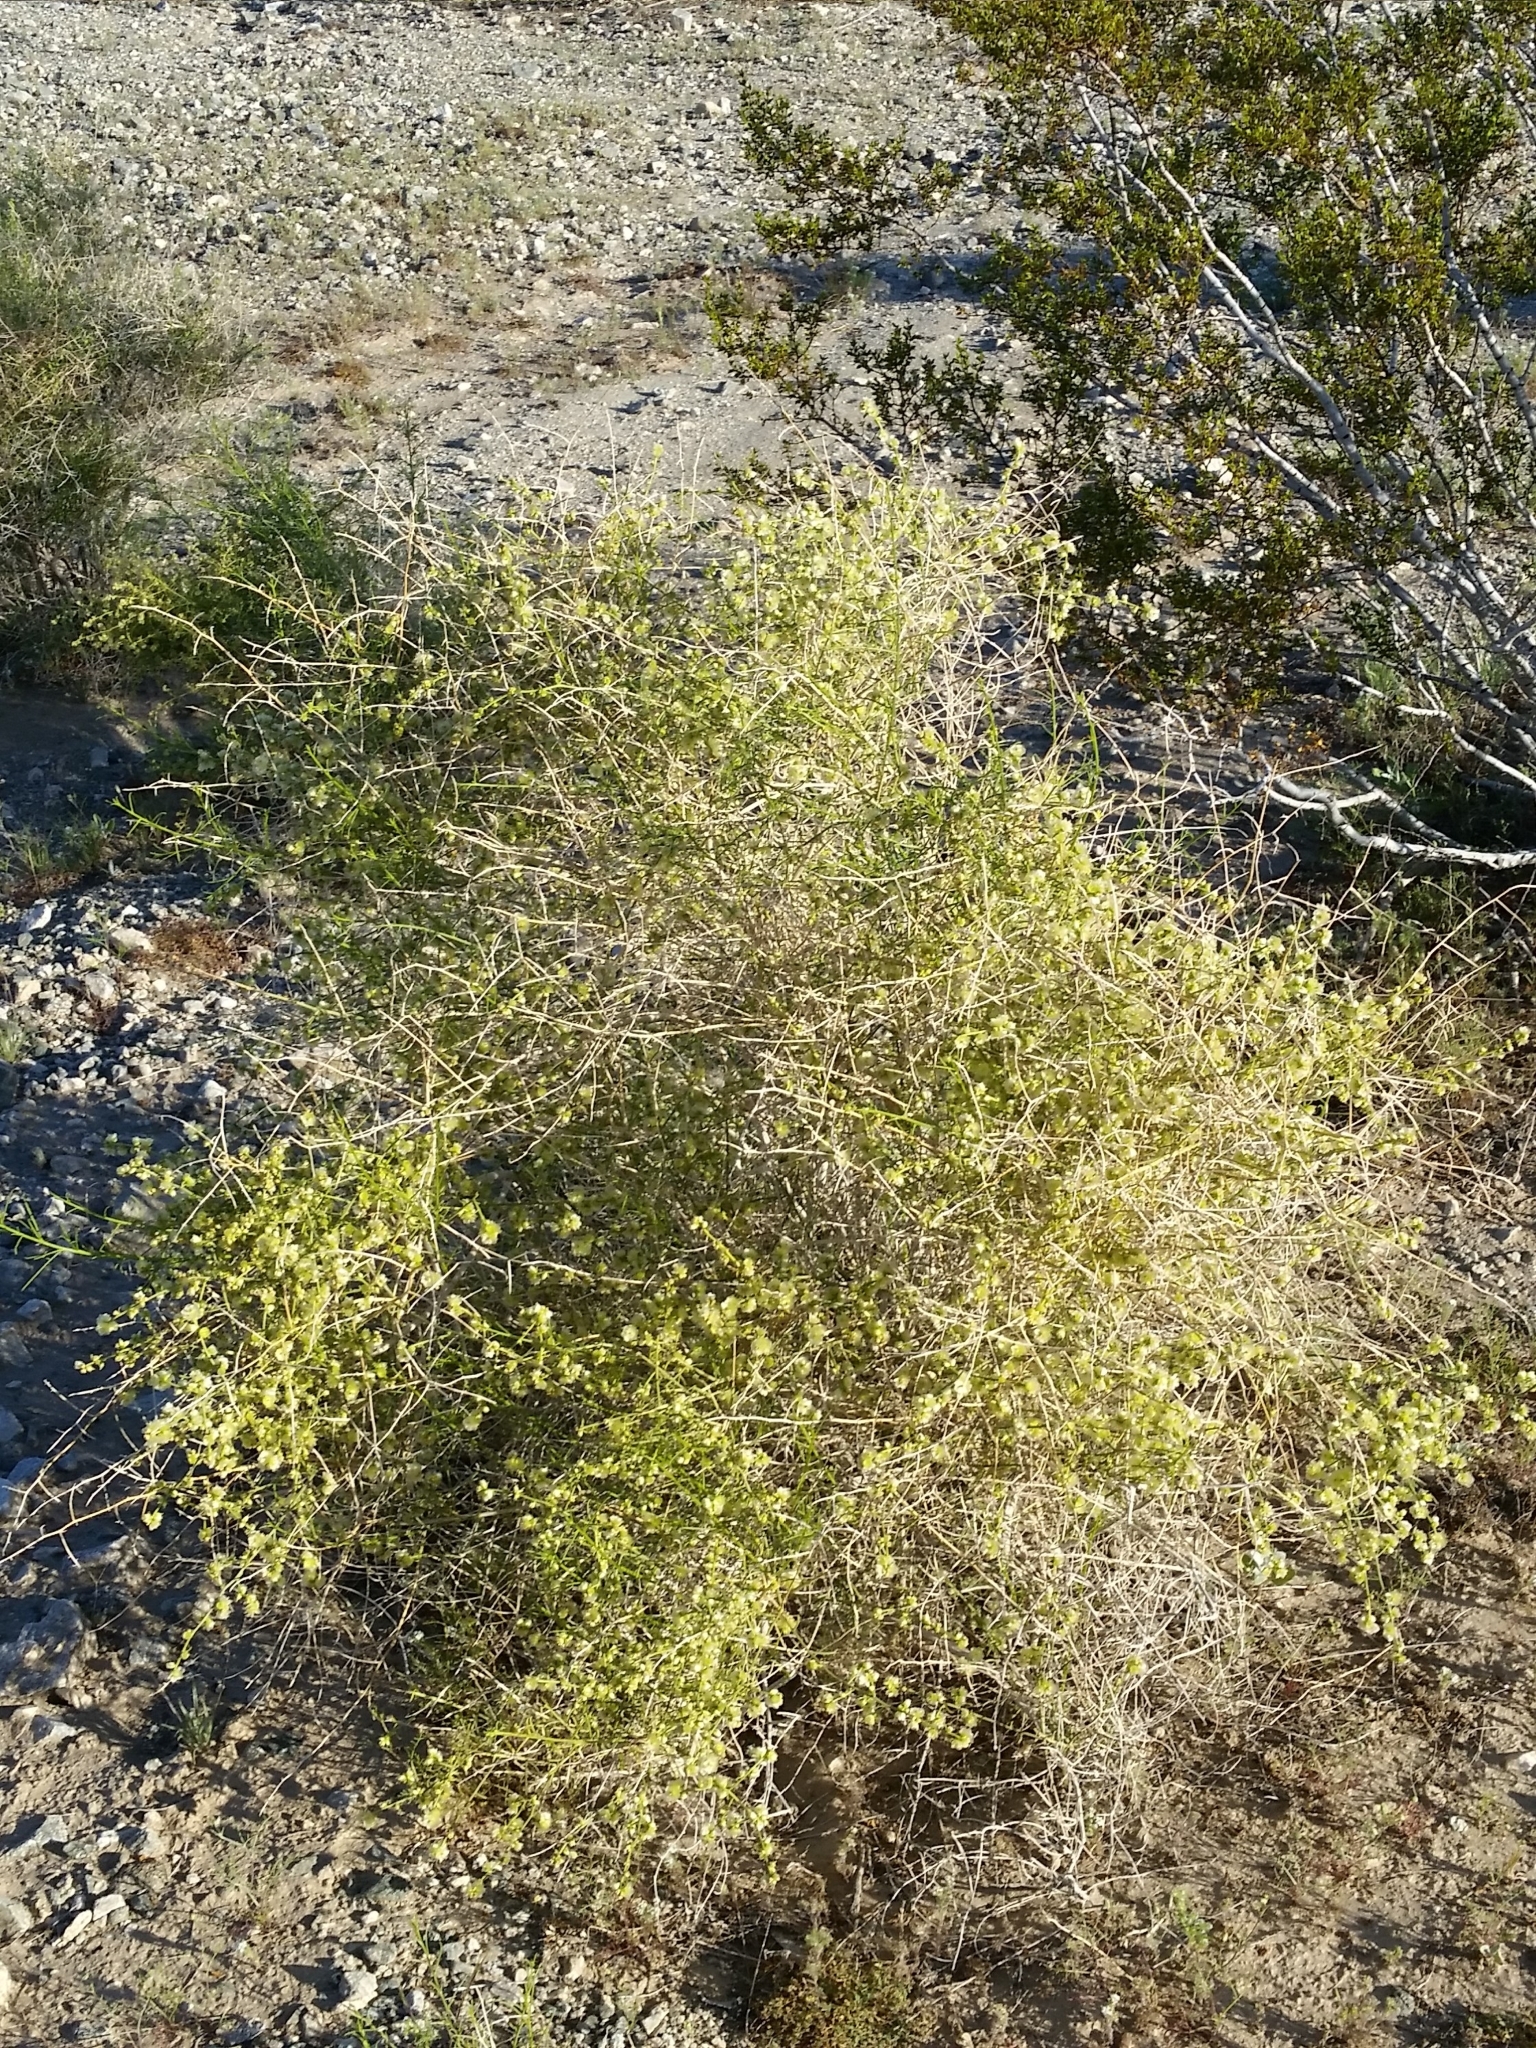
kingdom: Plantae
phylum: Tracheophyta
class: Magnoliopsida
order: Asterales
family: Asteraceae
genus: Ambrosia
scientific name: Ambrosia salsola
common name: Burrobrush
